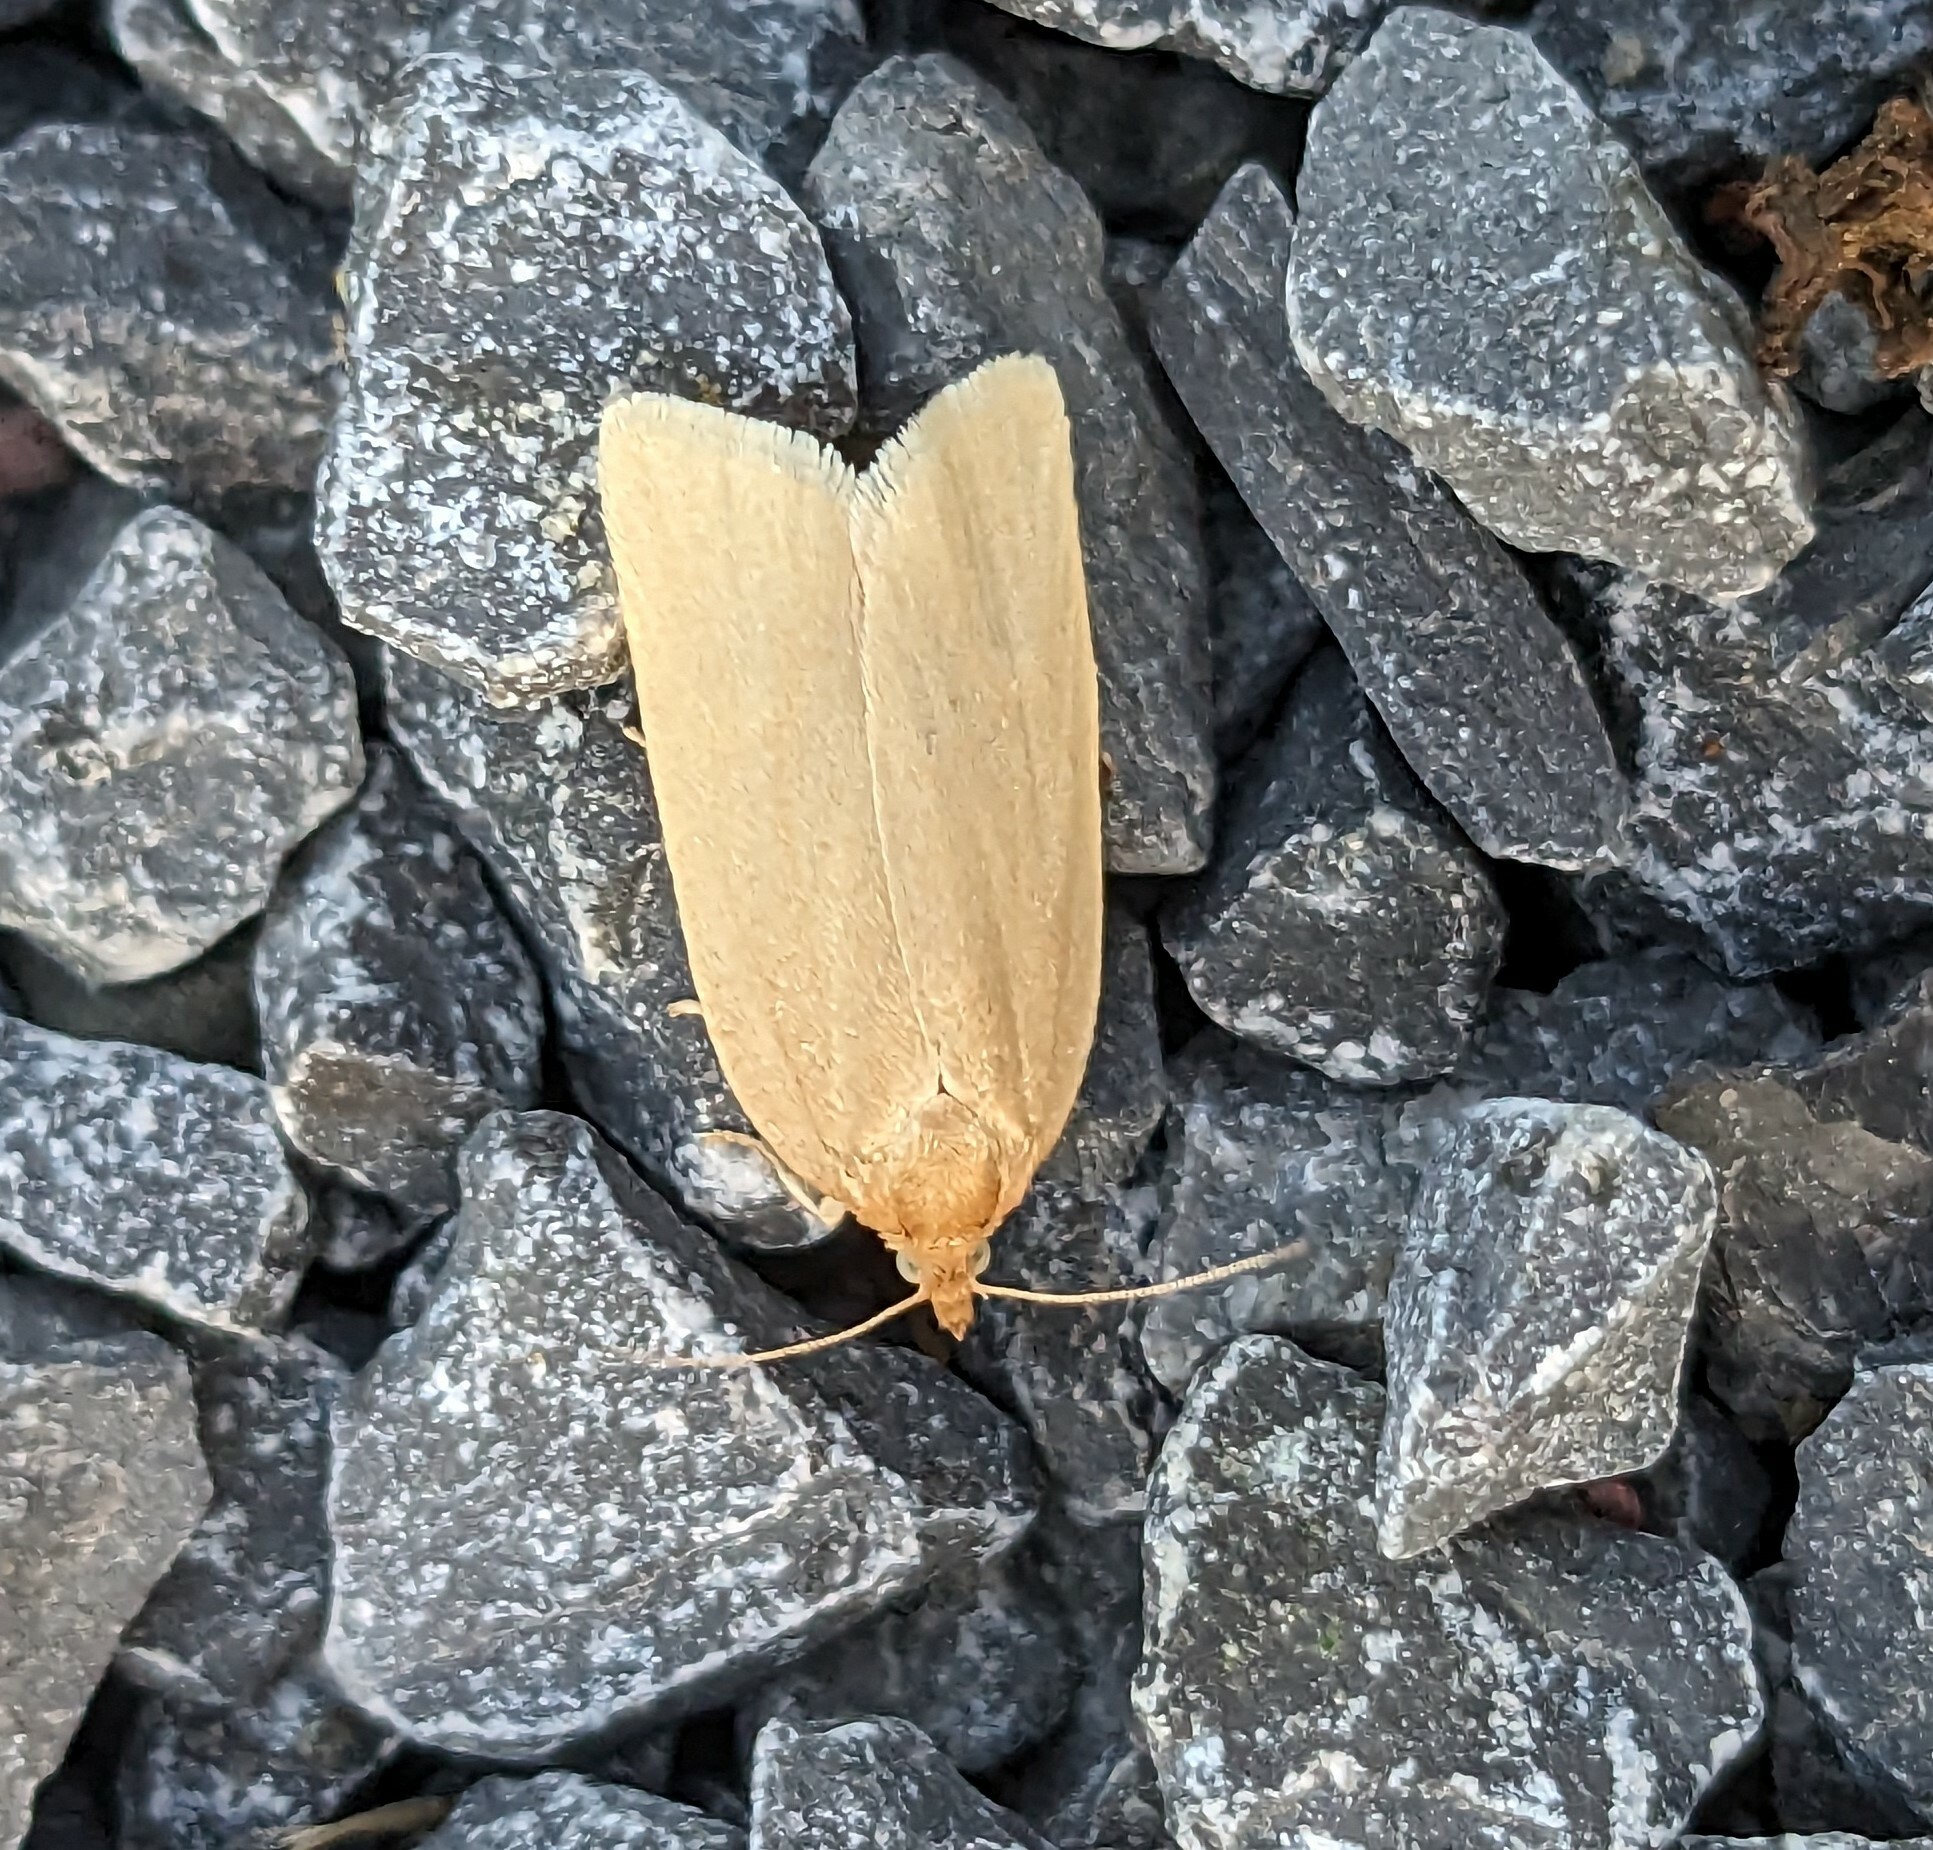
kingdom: Animalia
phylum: Arthropoda
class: Insecta
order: Lepidoptera
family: Tortricidae
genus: Xenotemna
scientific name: Xenotemna pallorana
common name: Pallid leafroller moth
